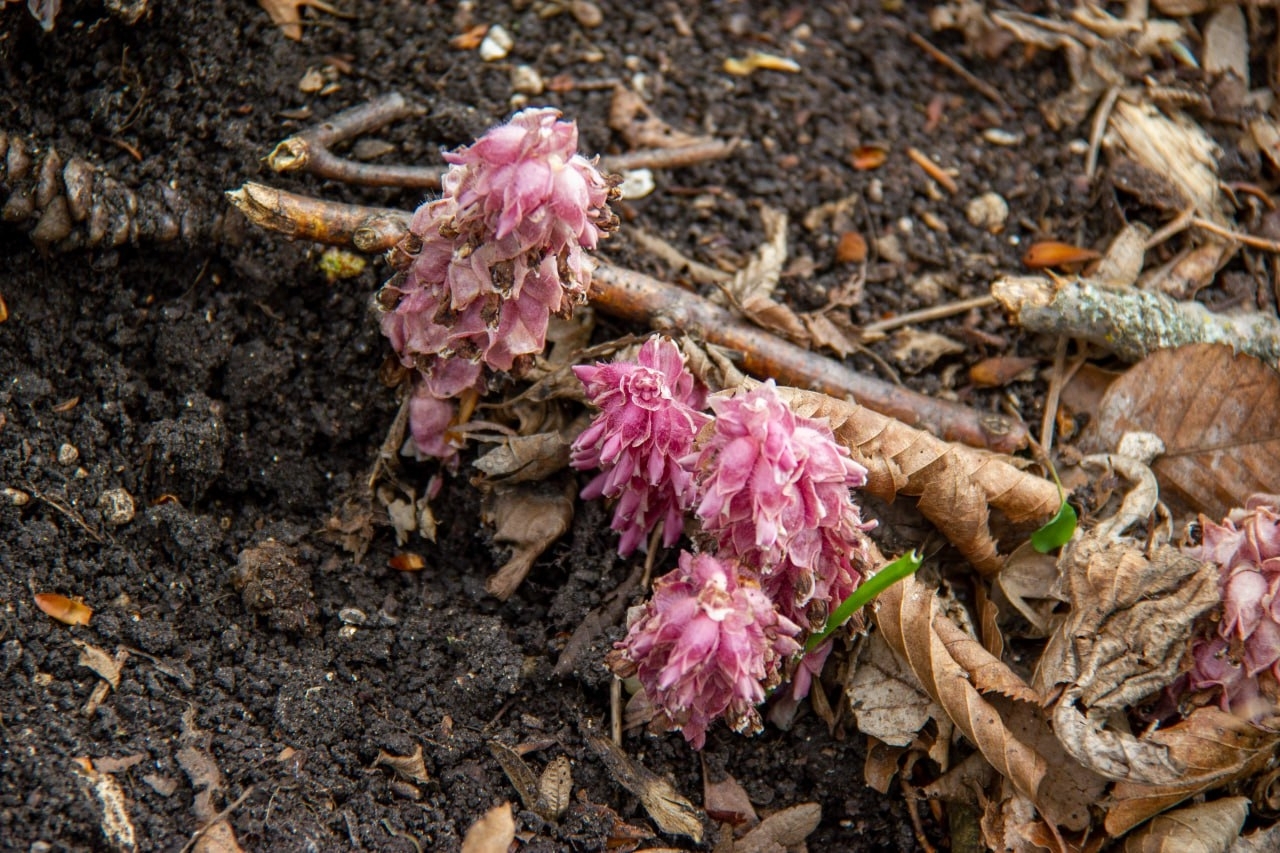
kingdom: Plantae
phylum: Tracheophyta
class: Magnoliopsida
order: Lamiales
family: Orobanchaceae
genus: Lathraea
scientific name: Lathraea squamaria
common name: Toothwort
